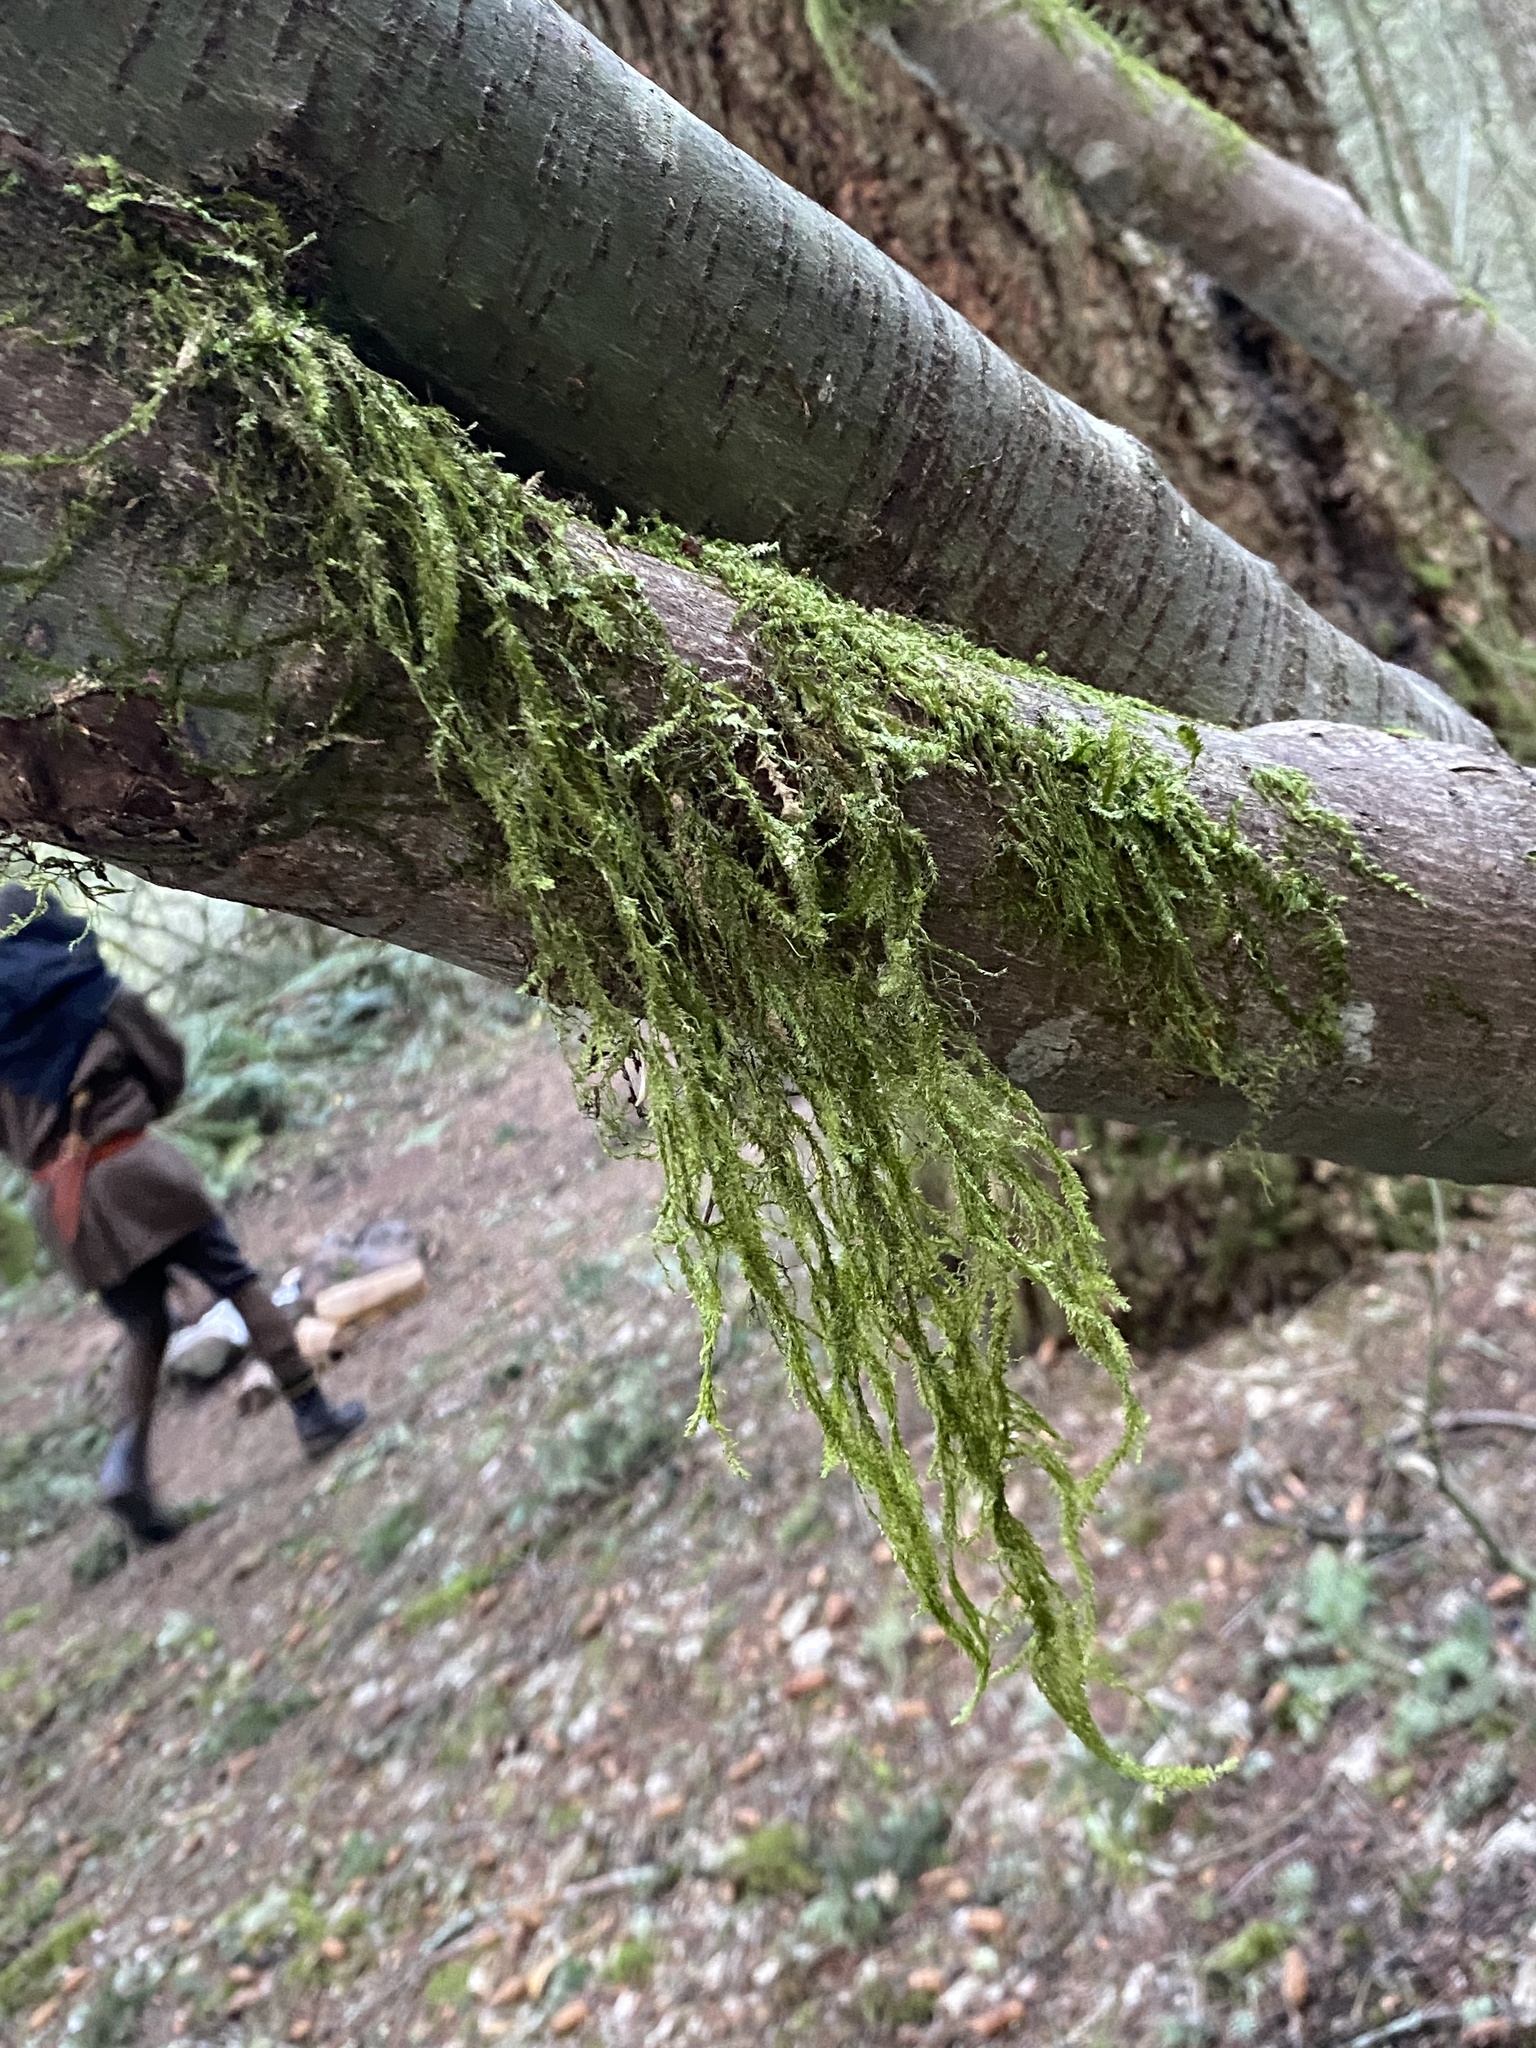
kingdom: Plantae
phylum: Bryophyta
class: Bryopsida
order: Hypnales
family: Lembophyllaceae
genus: Pseudisothecium
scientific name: Pseudisothecium stoloniferum
